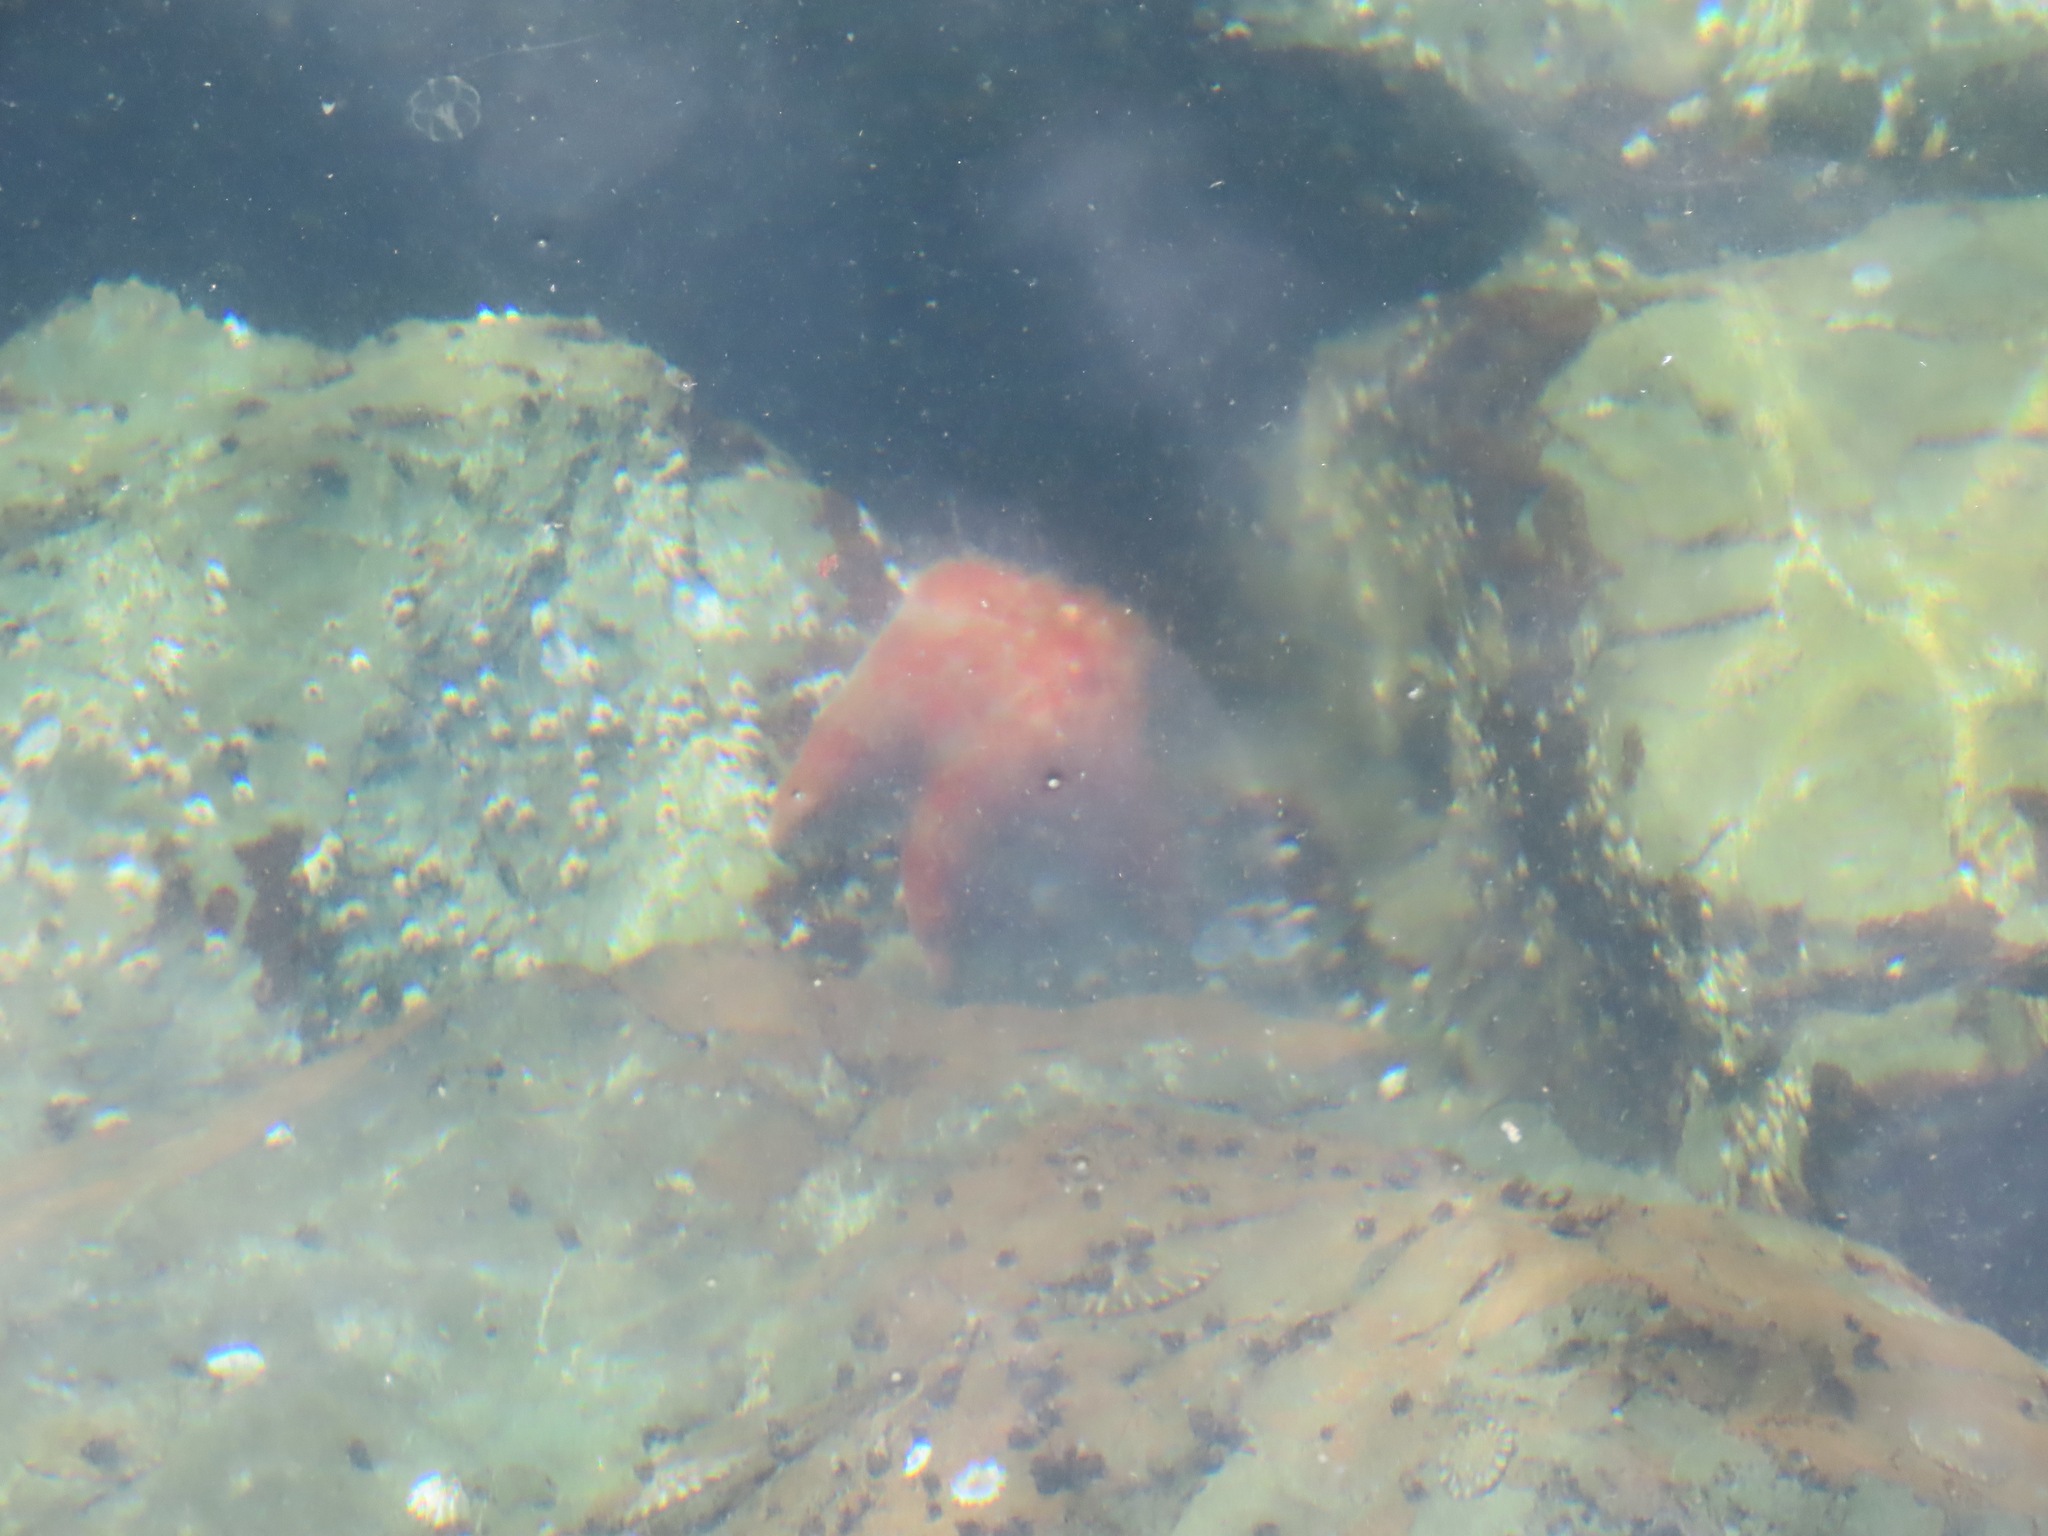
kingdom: Animalia
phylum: Echinodermata
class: Asteroidea
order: Valvatida
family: Asteropseidae
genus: Dermasterias
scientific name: Dermasterias imbricata
